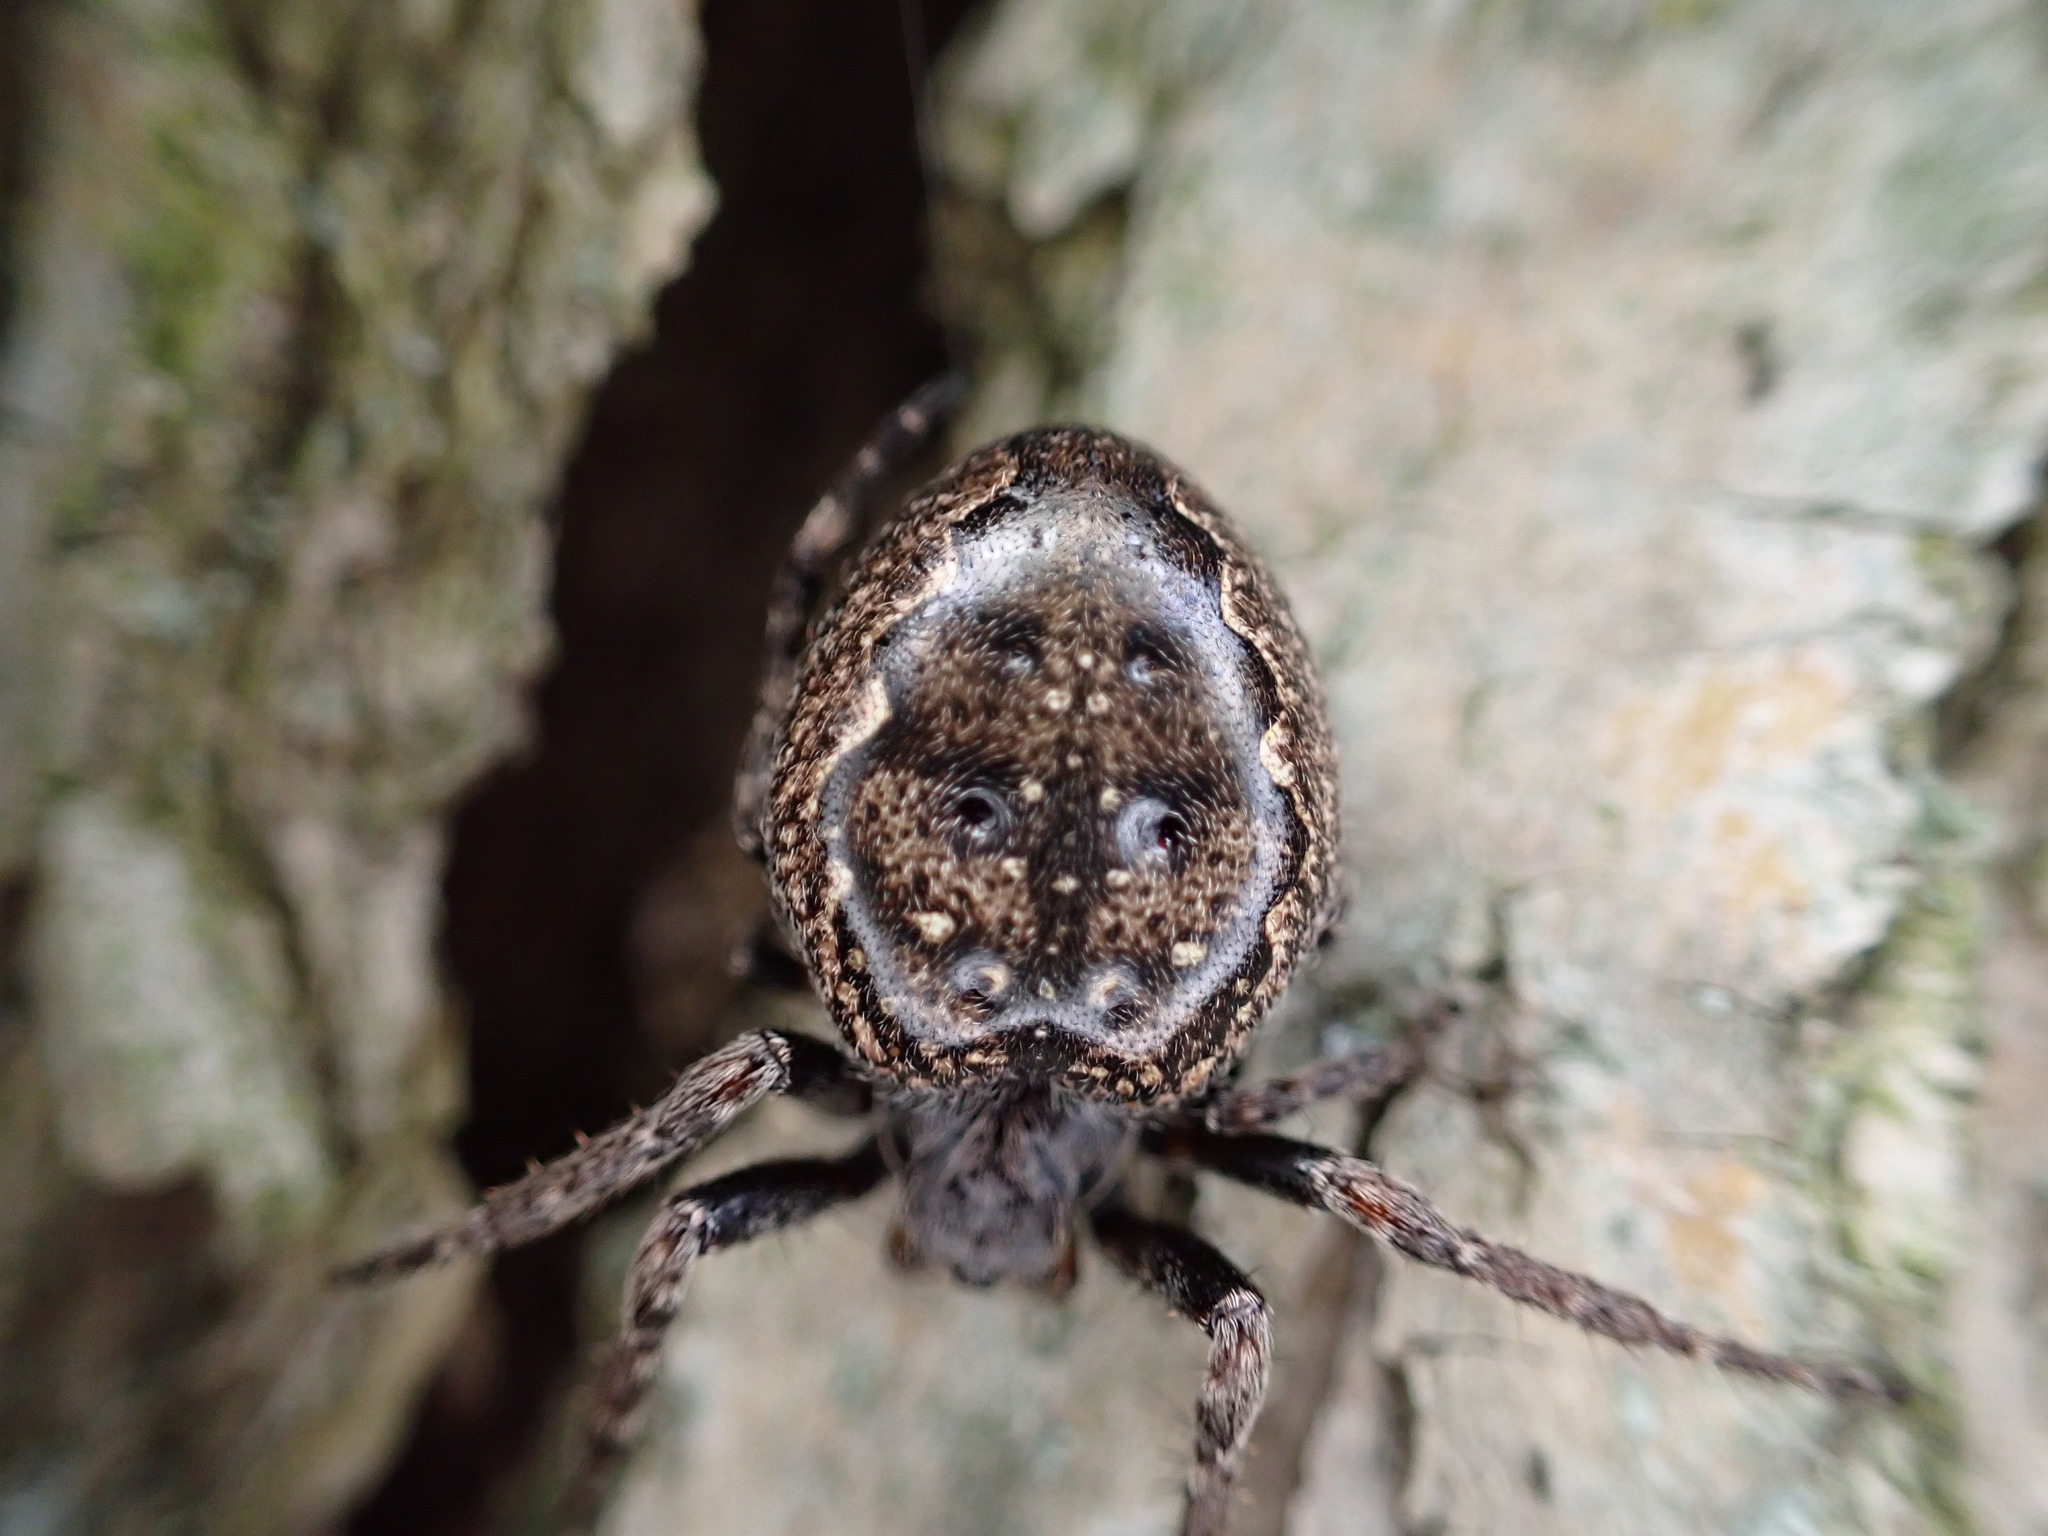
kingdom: Animalia
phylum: Arthropoda
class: Arachnida
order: Araneae
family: Araneidae
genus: Nuctenea
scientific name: Nuctenea umbratica
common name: Toad spider
